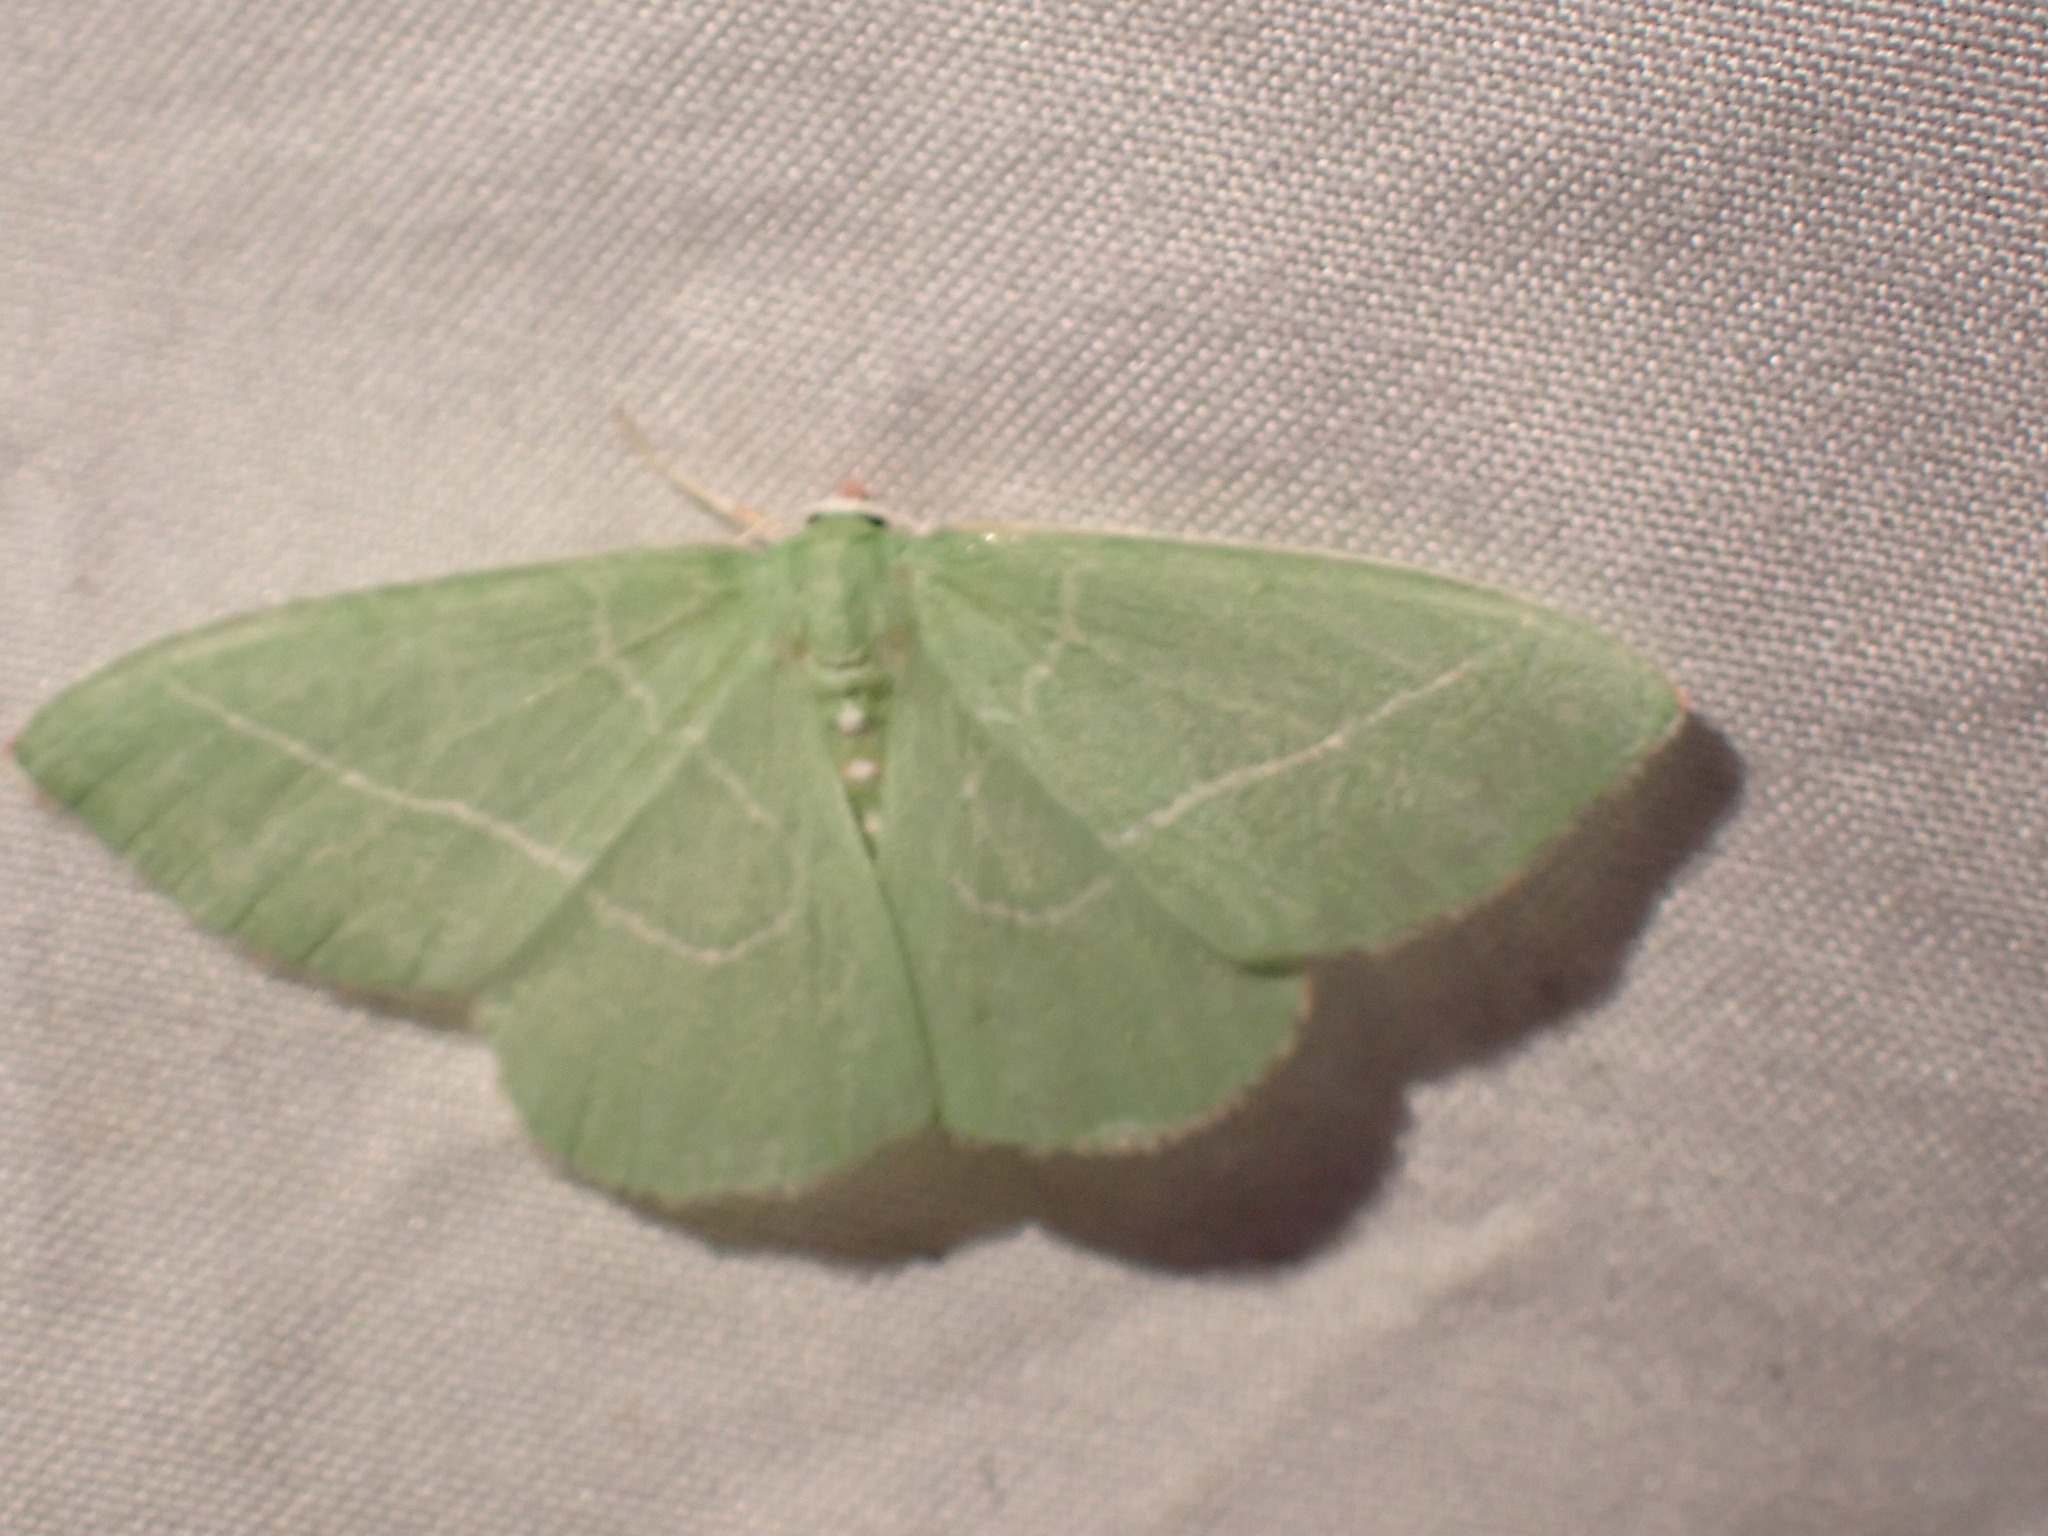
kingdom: Animalia
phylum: Arthropoda
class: Insecta
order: Lepidoptera
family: Geometridae
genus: Nemoria
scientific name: Nemoria unitaria
